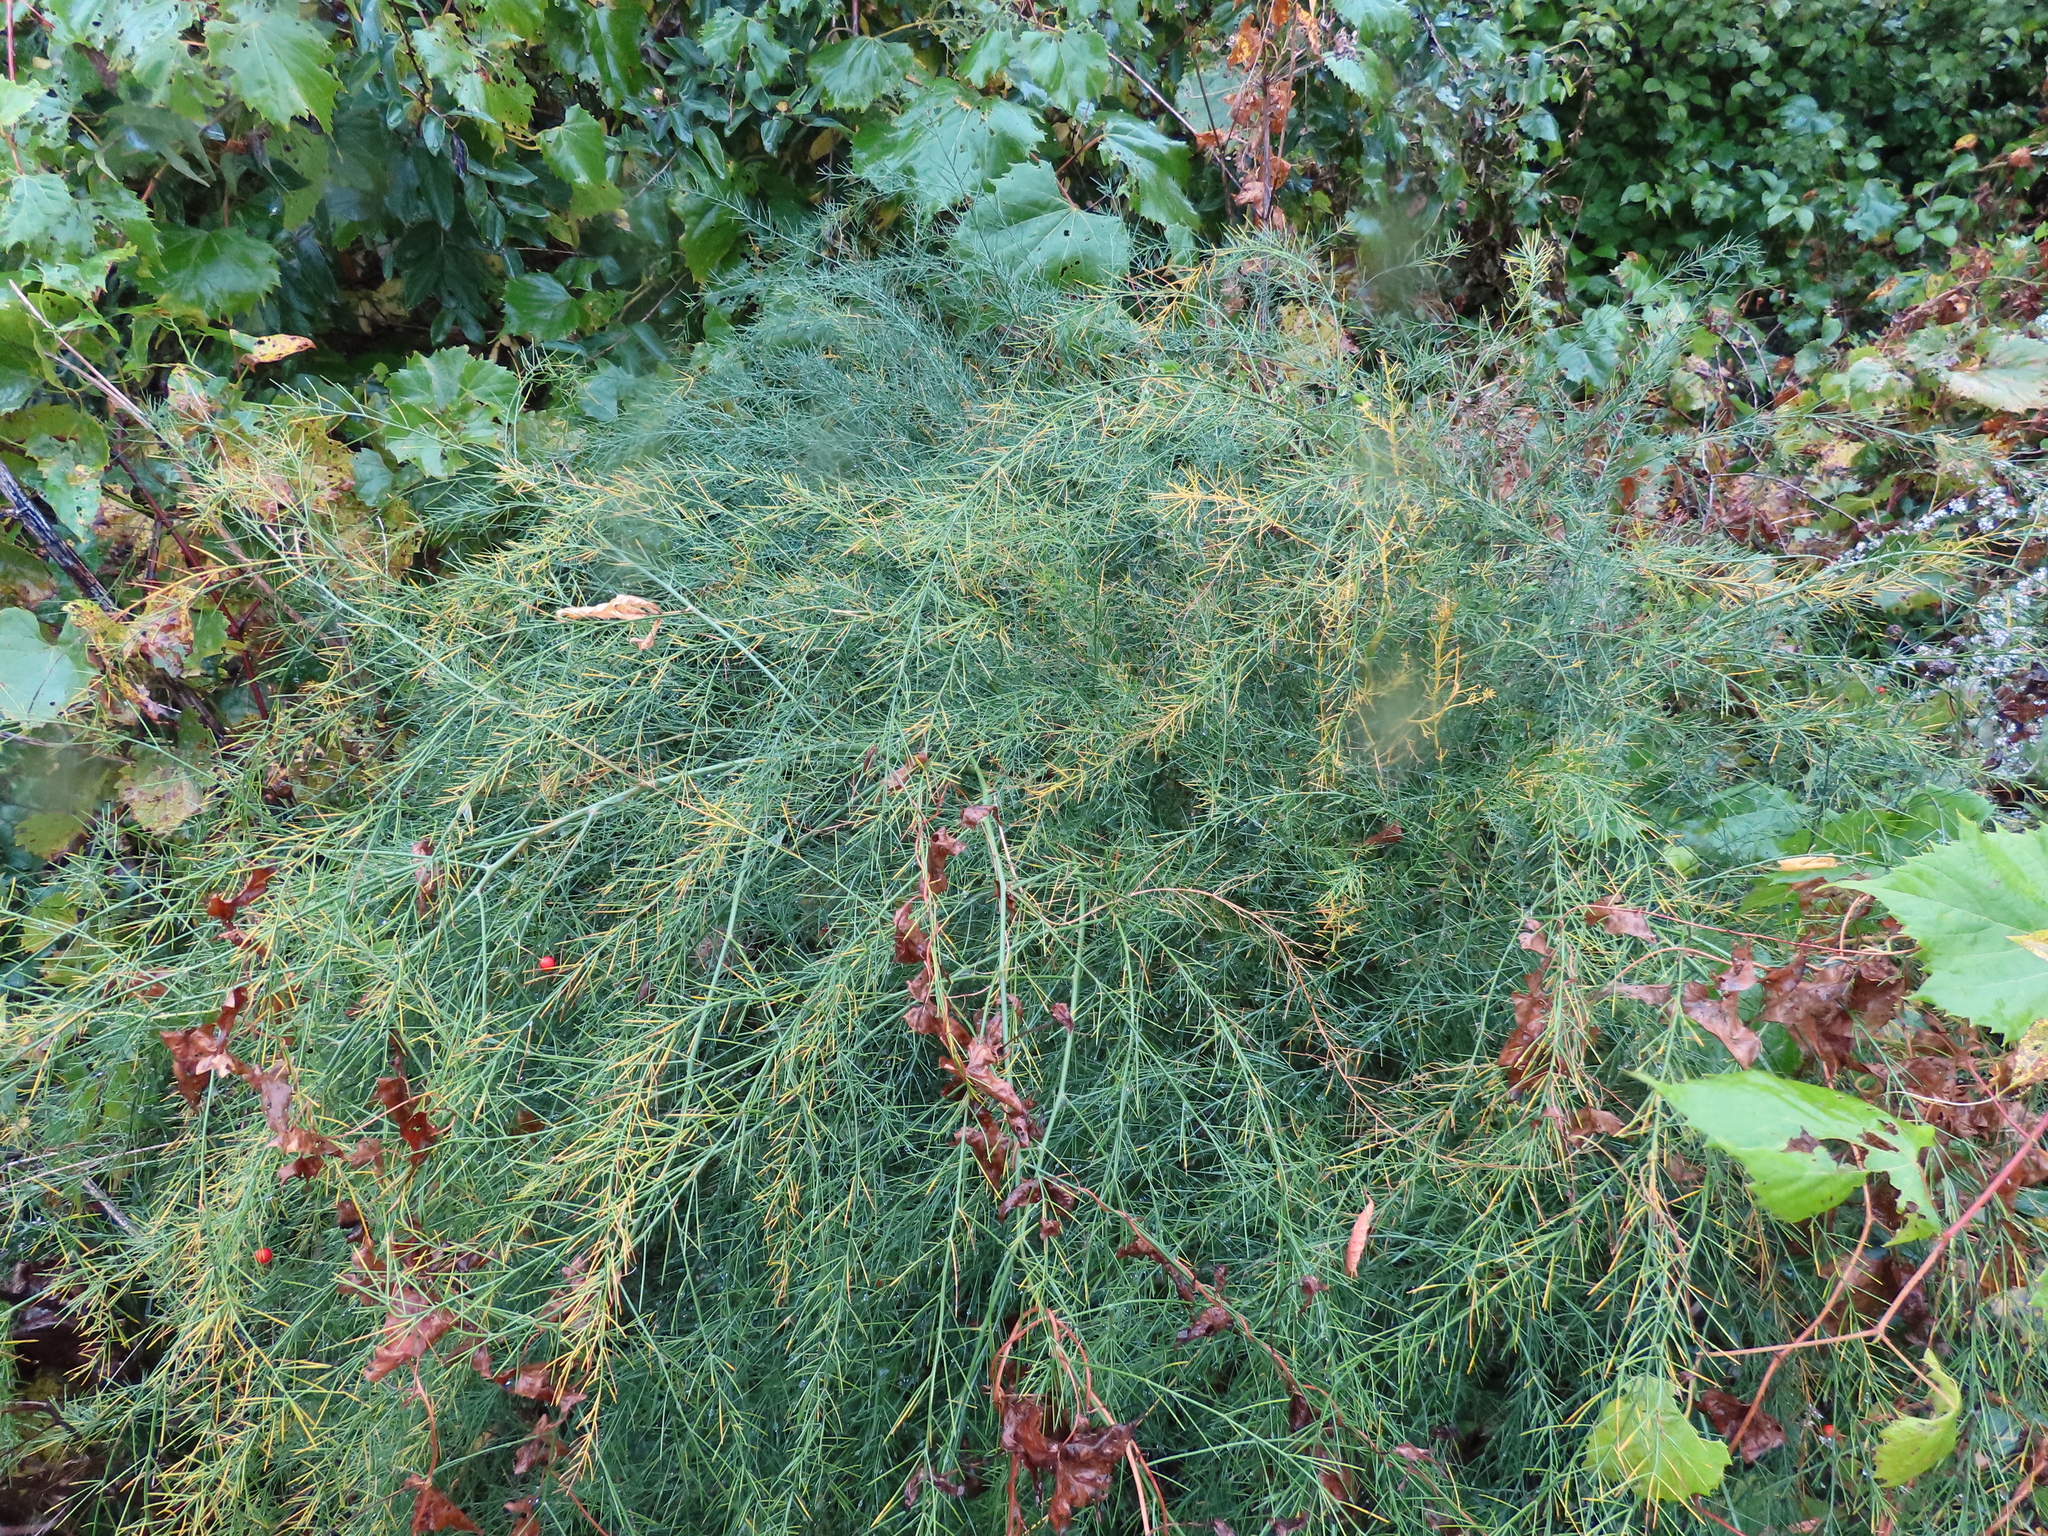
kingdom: Plantae
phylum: Tracheophyta
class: Liliopsida
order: Asparagales
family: Asparagaceae
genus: Asparagus
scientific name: Asparagus officinalis
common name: Garden asparagus
